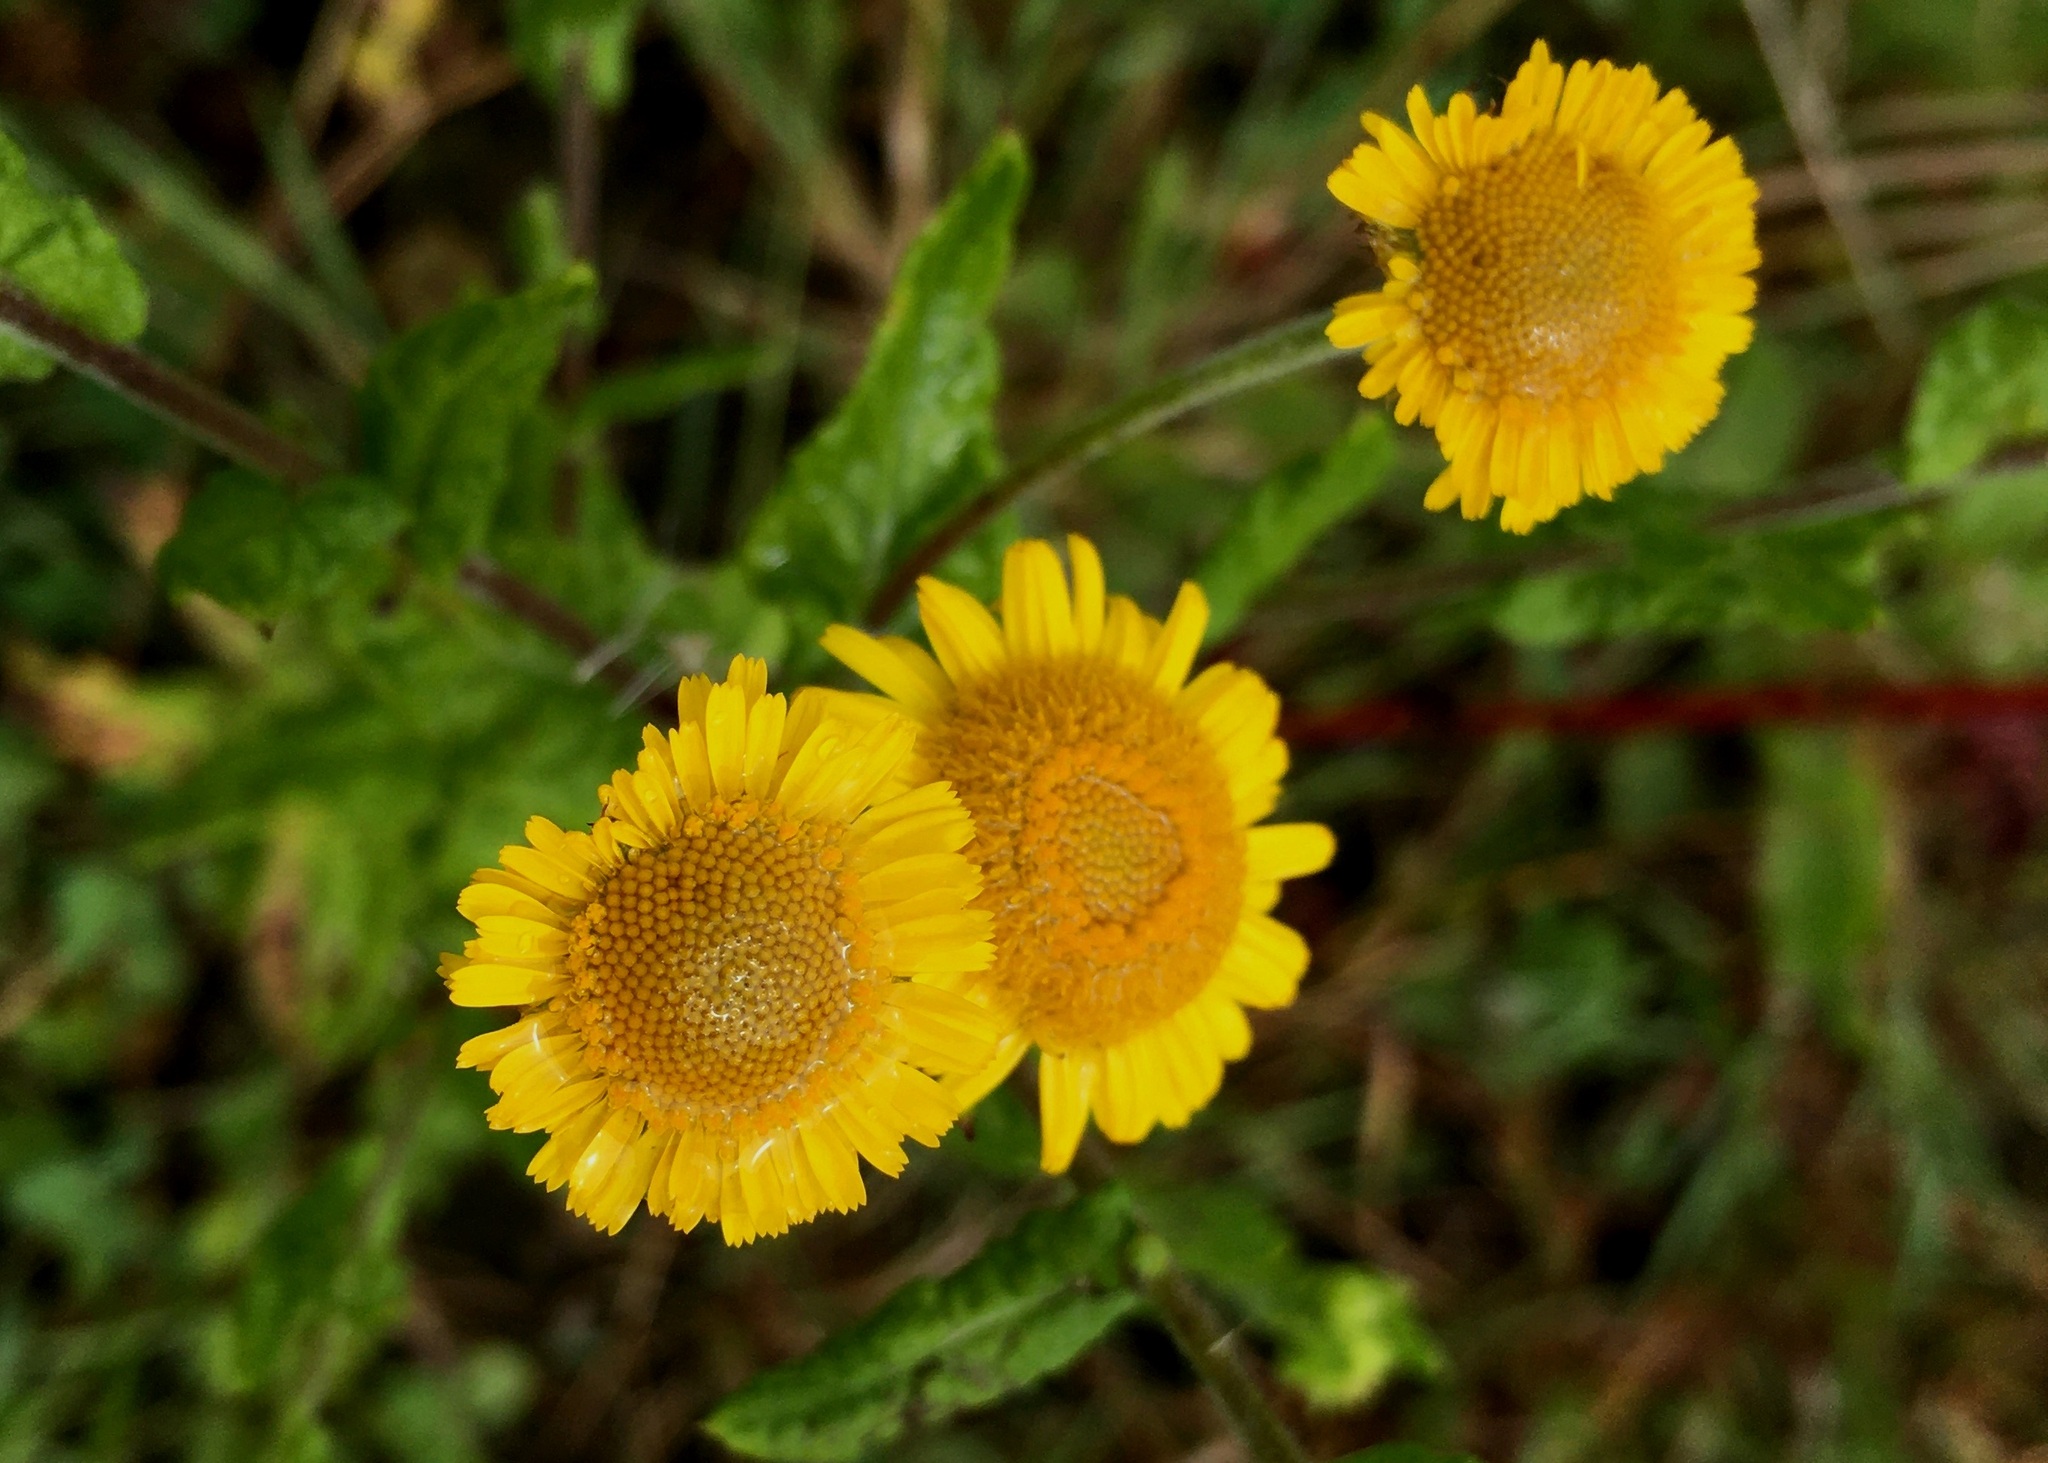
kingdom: Plantae
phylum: Tracheophyta
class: Magnoliopsida
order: Asterales
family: Asteraceae
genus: Pulicaria
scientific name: Pulicaria dysenterica
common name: Common fleabane
